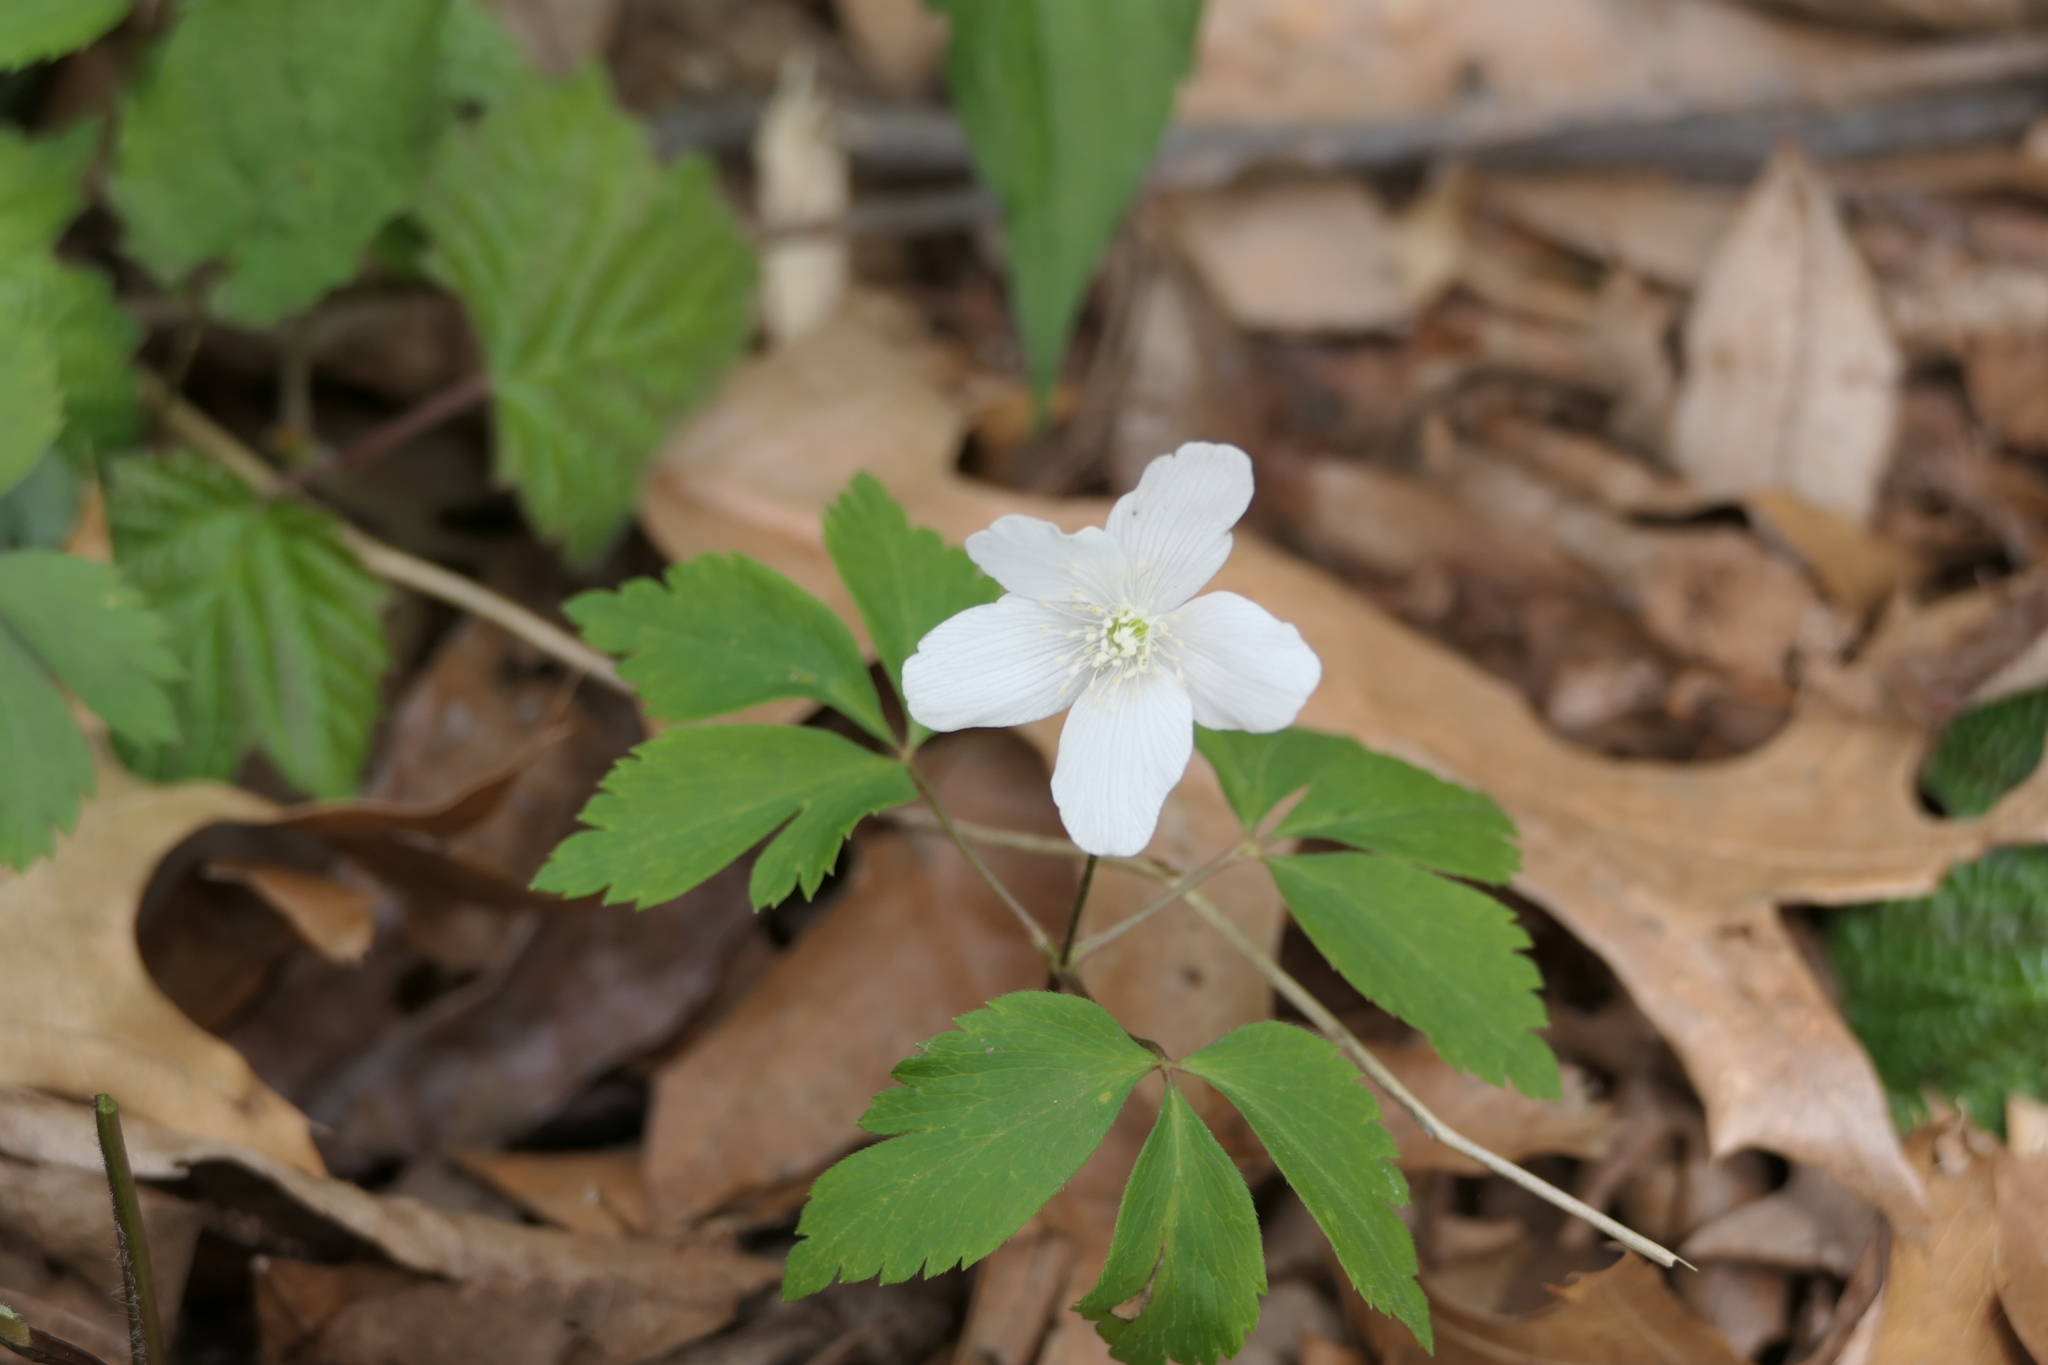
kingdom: Plantae
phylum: Tracheophyta
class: Magnoliopsida
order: Ranunculales
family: Ranunculaceae
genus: Anemone
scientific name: Anemone quinquefolia
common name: Wood anemone
